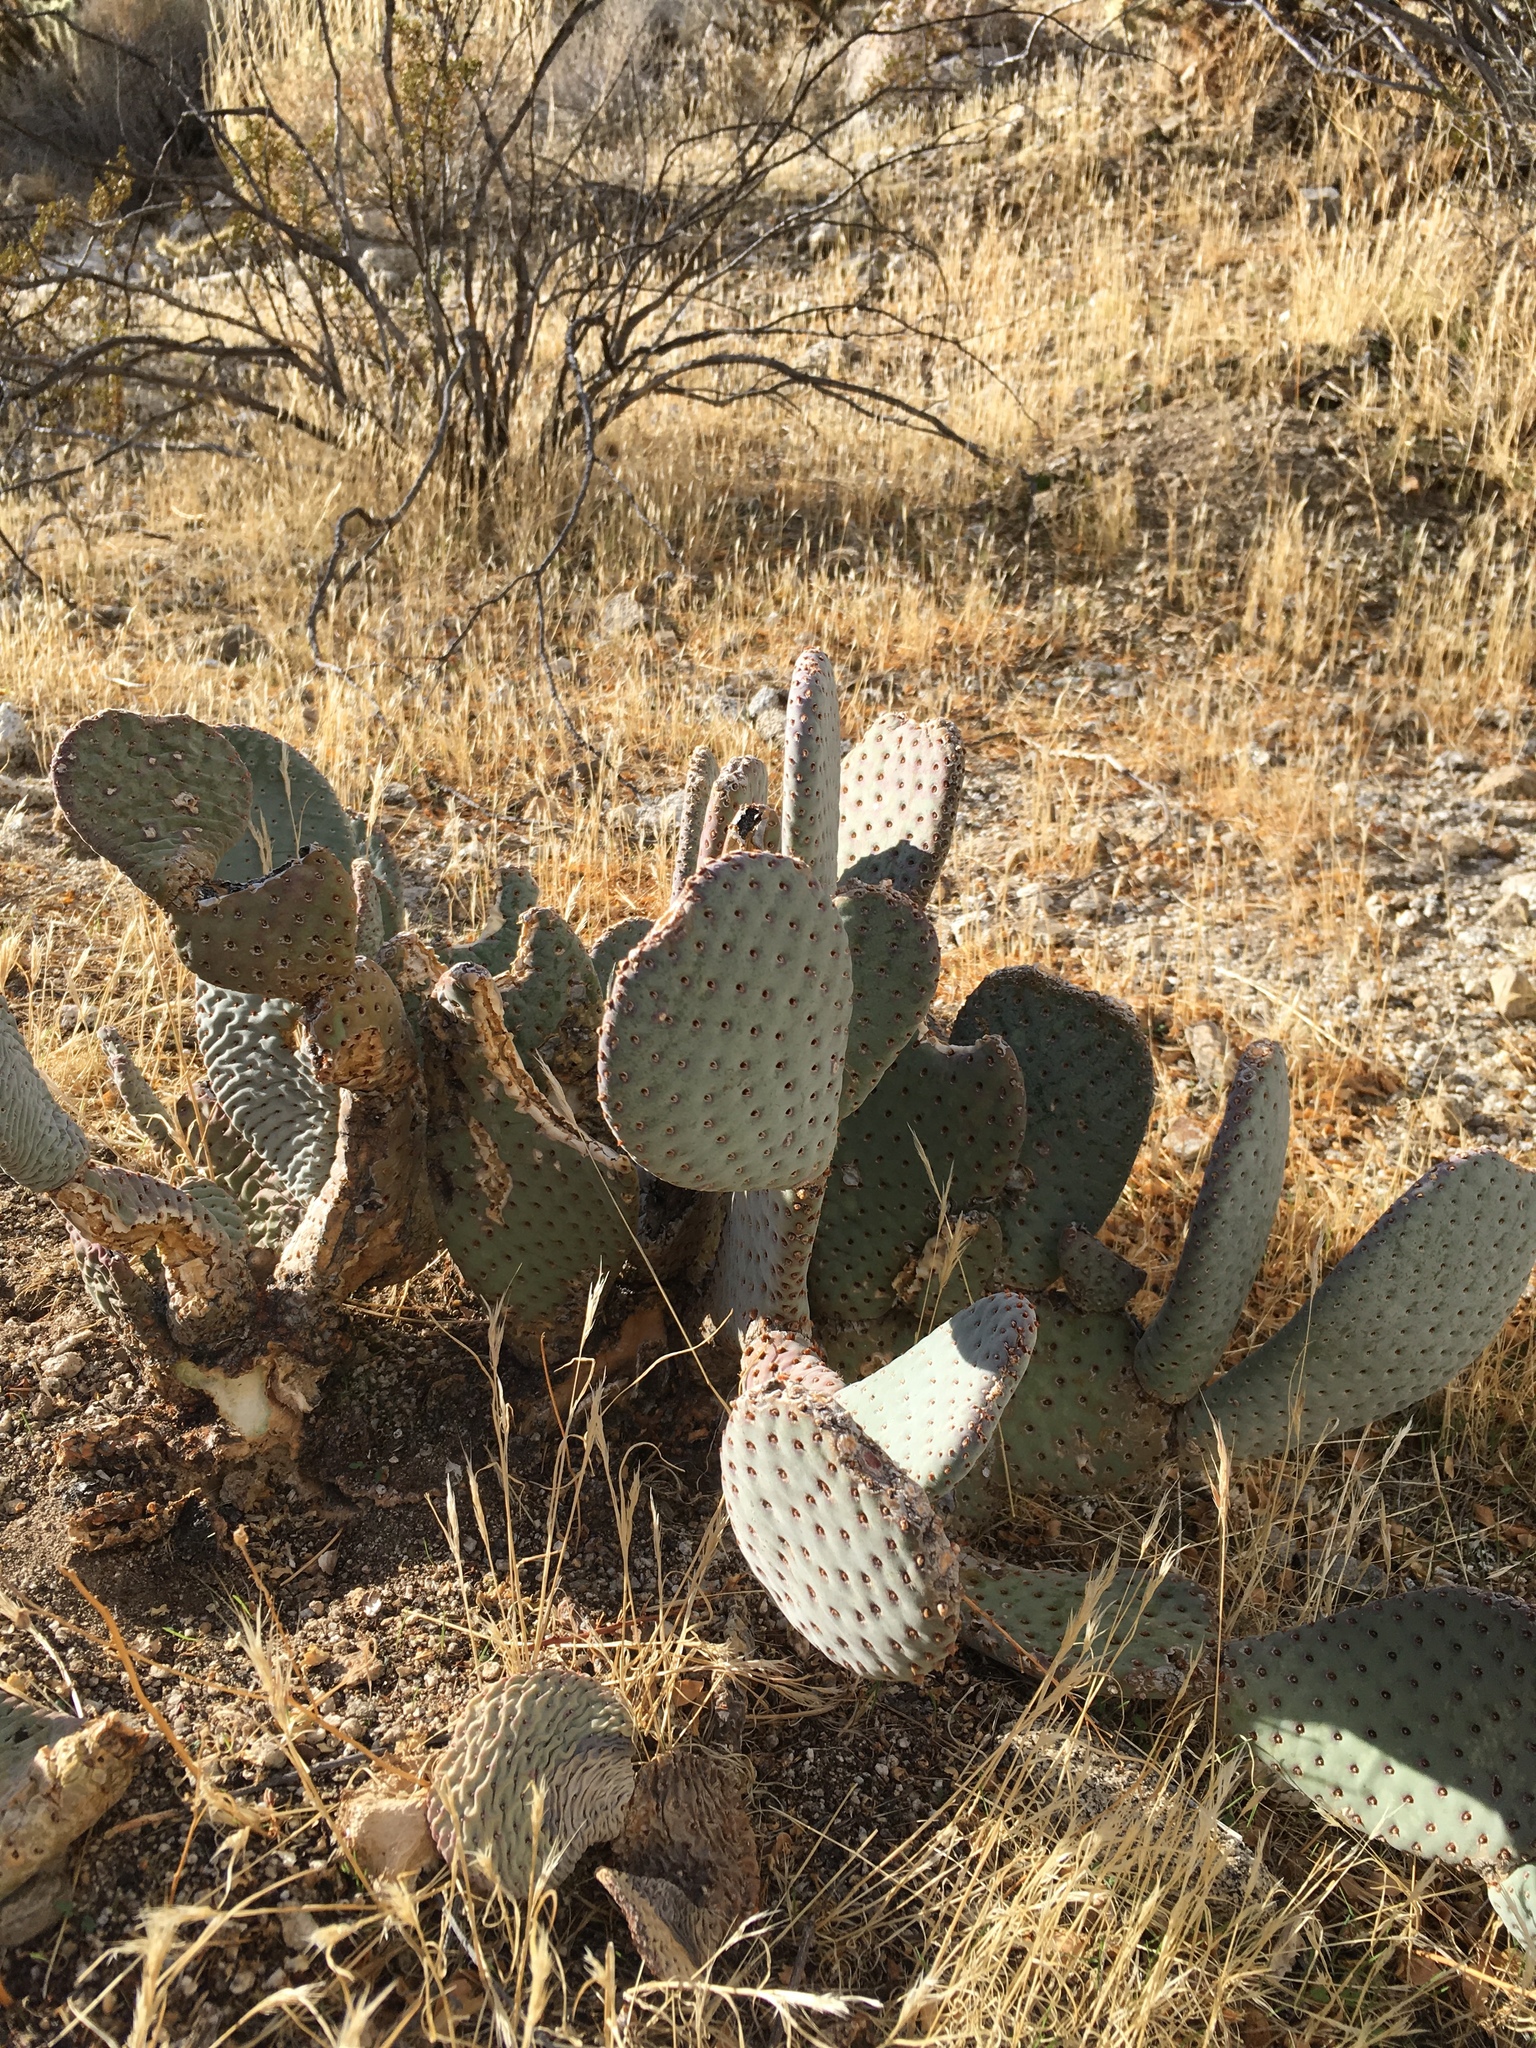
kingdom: Plantae
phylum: Tracheophyta
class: Magnoliopsida
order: Caryophyllales
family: Cactaceae
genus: Opuntia
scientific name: Opuntia basilaris
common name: Beavertail prickly-pear
